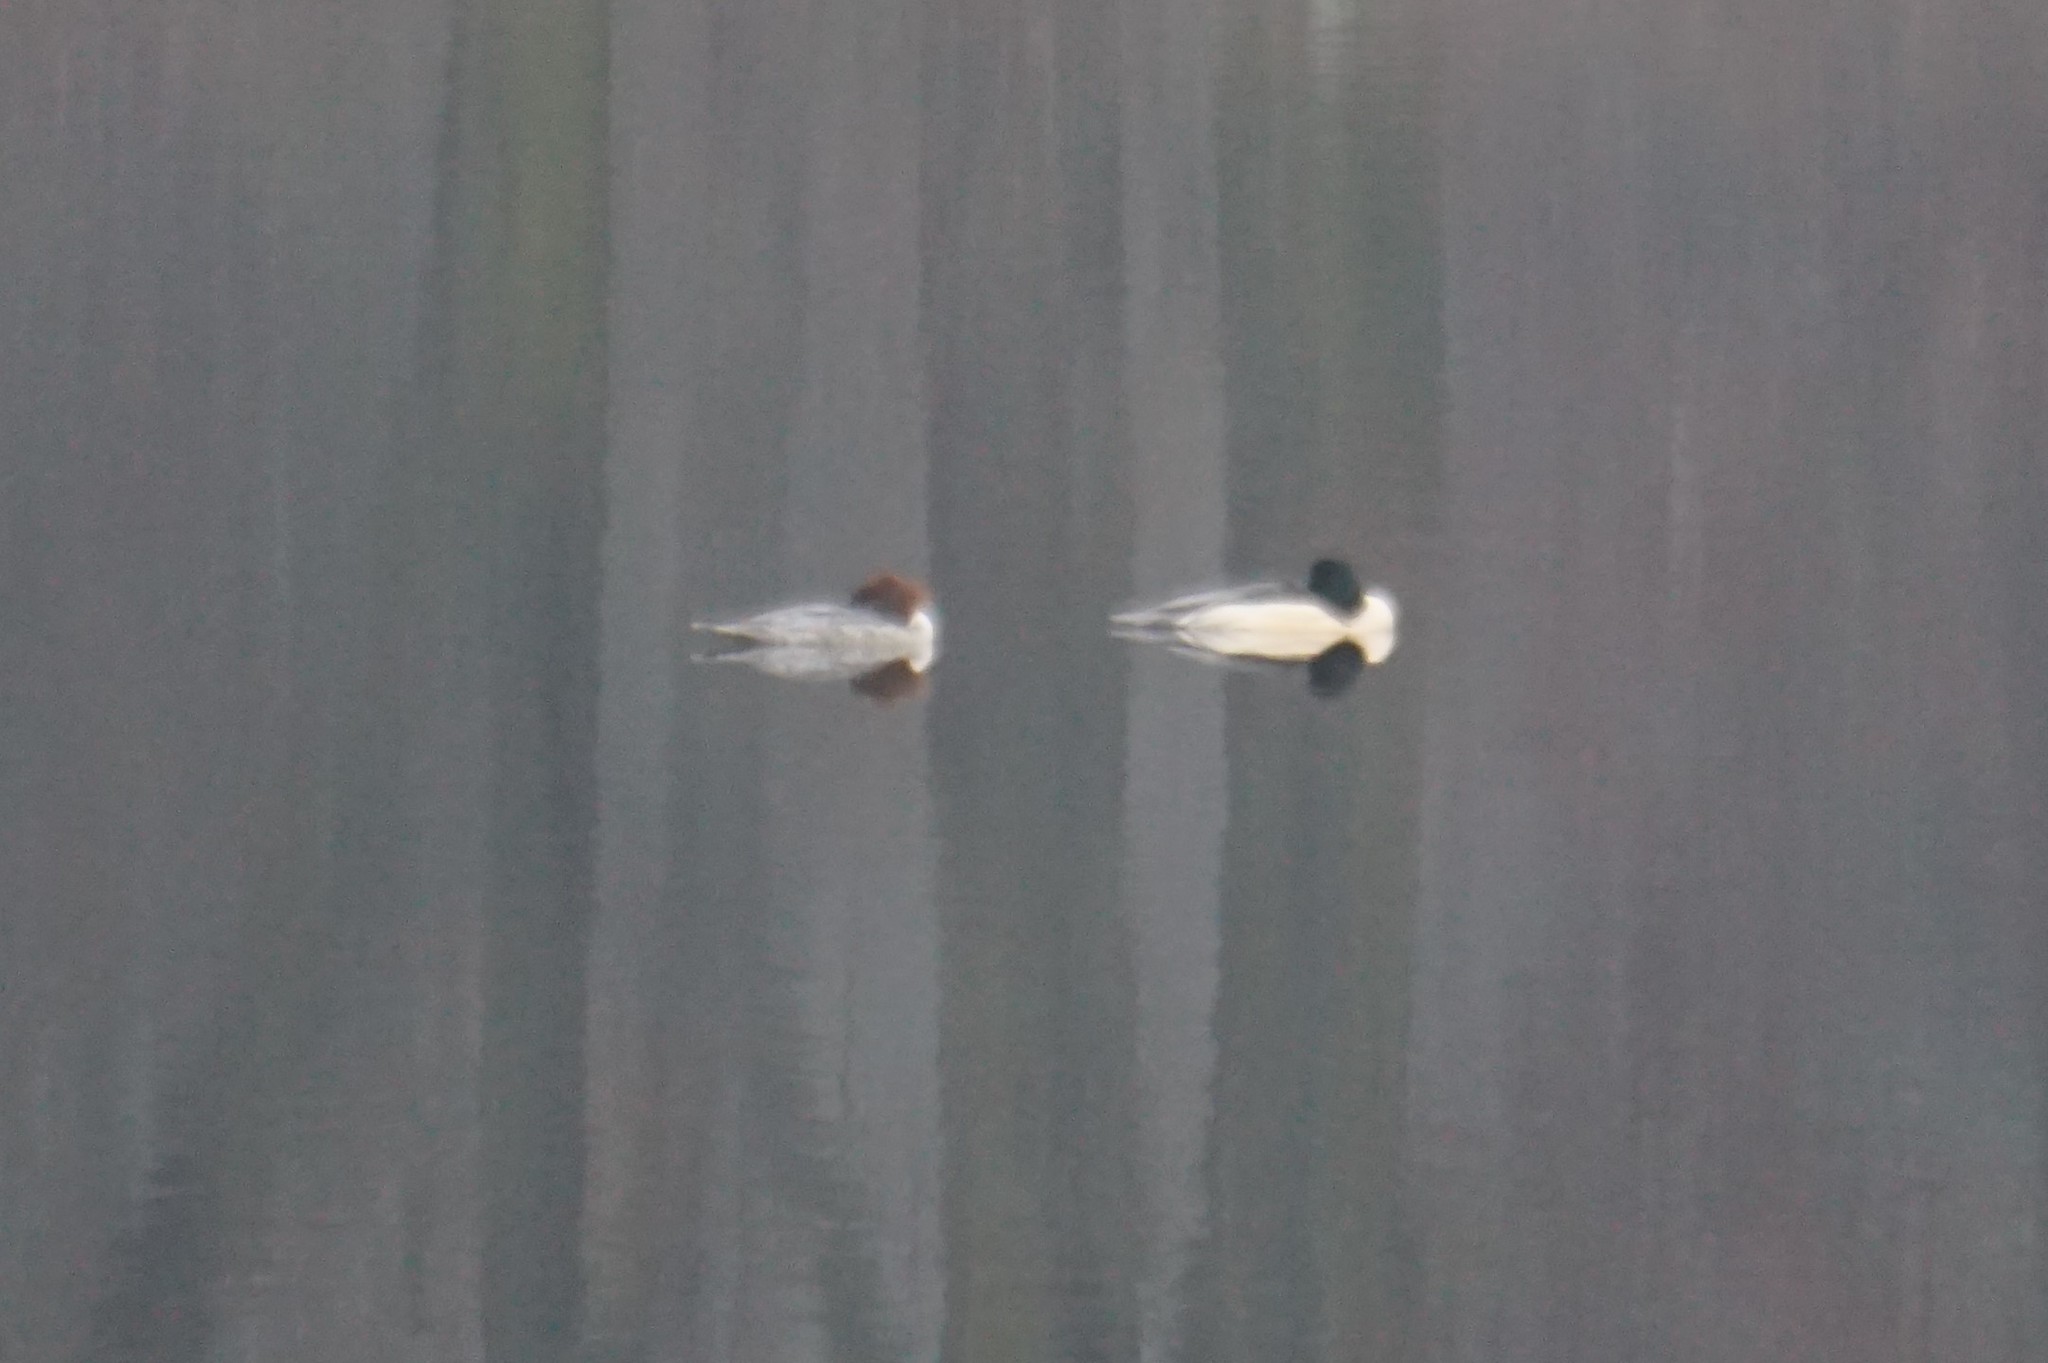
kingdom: Animalia
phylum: Chordata
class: Aves
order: Anseriformes
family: Anatidae
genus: Mergus
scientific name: Mergus merganser
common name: Common merganser
